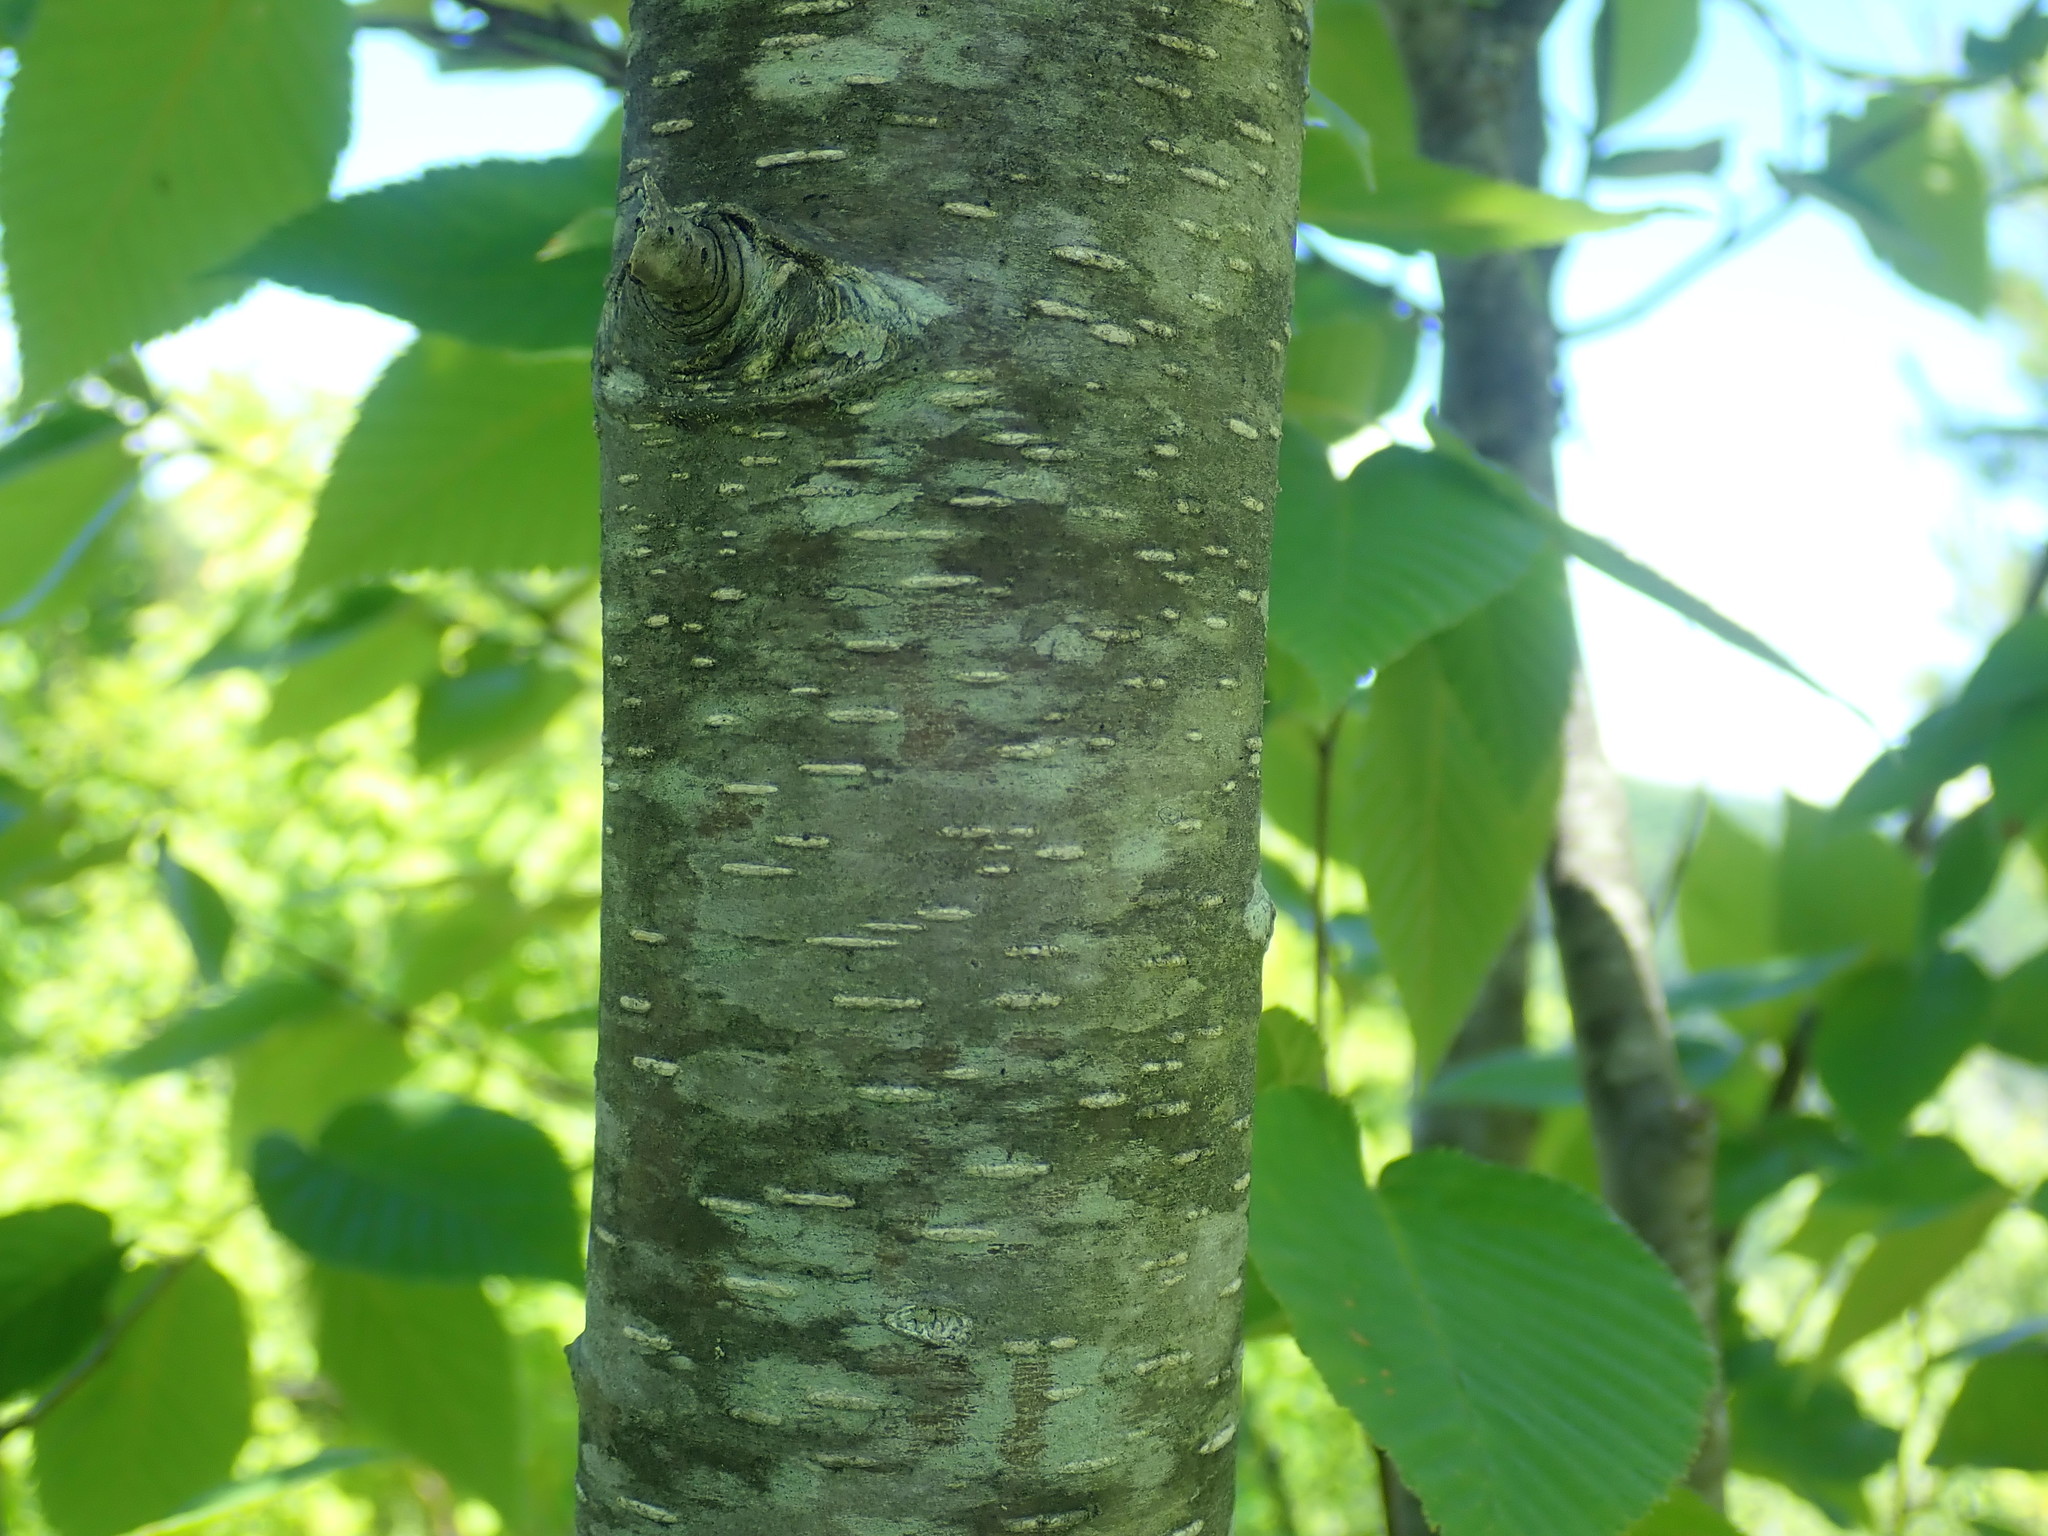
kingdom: Plantae
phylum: Tracheophyta
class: Magnoliopsida
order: Fagales
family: Betulaceae
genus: Betula
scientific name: Betula lenta
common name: Black birch
